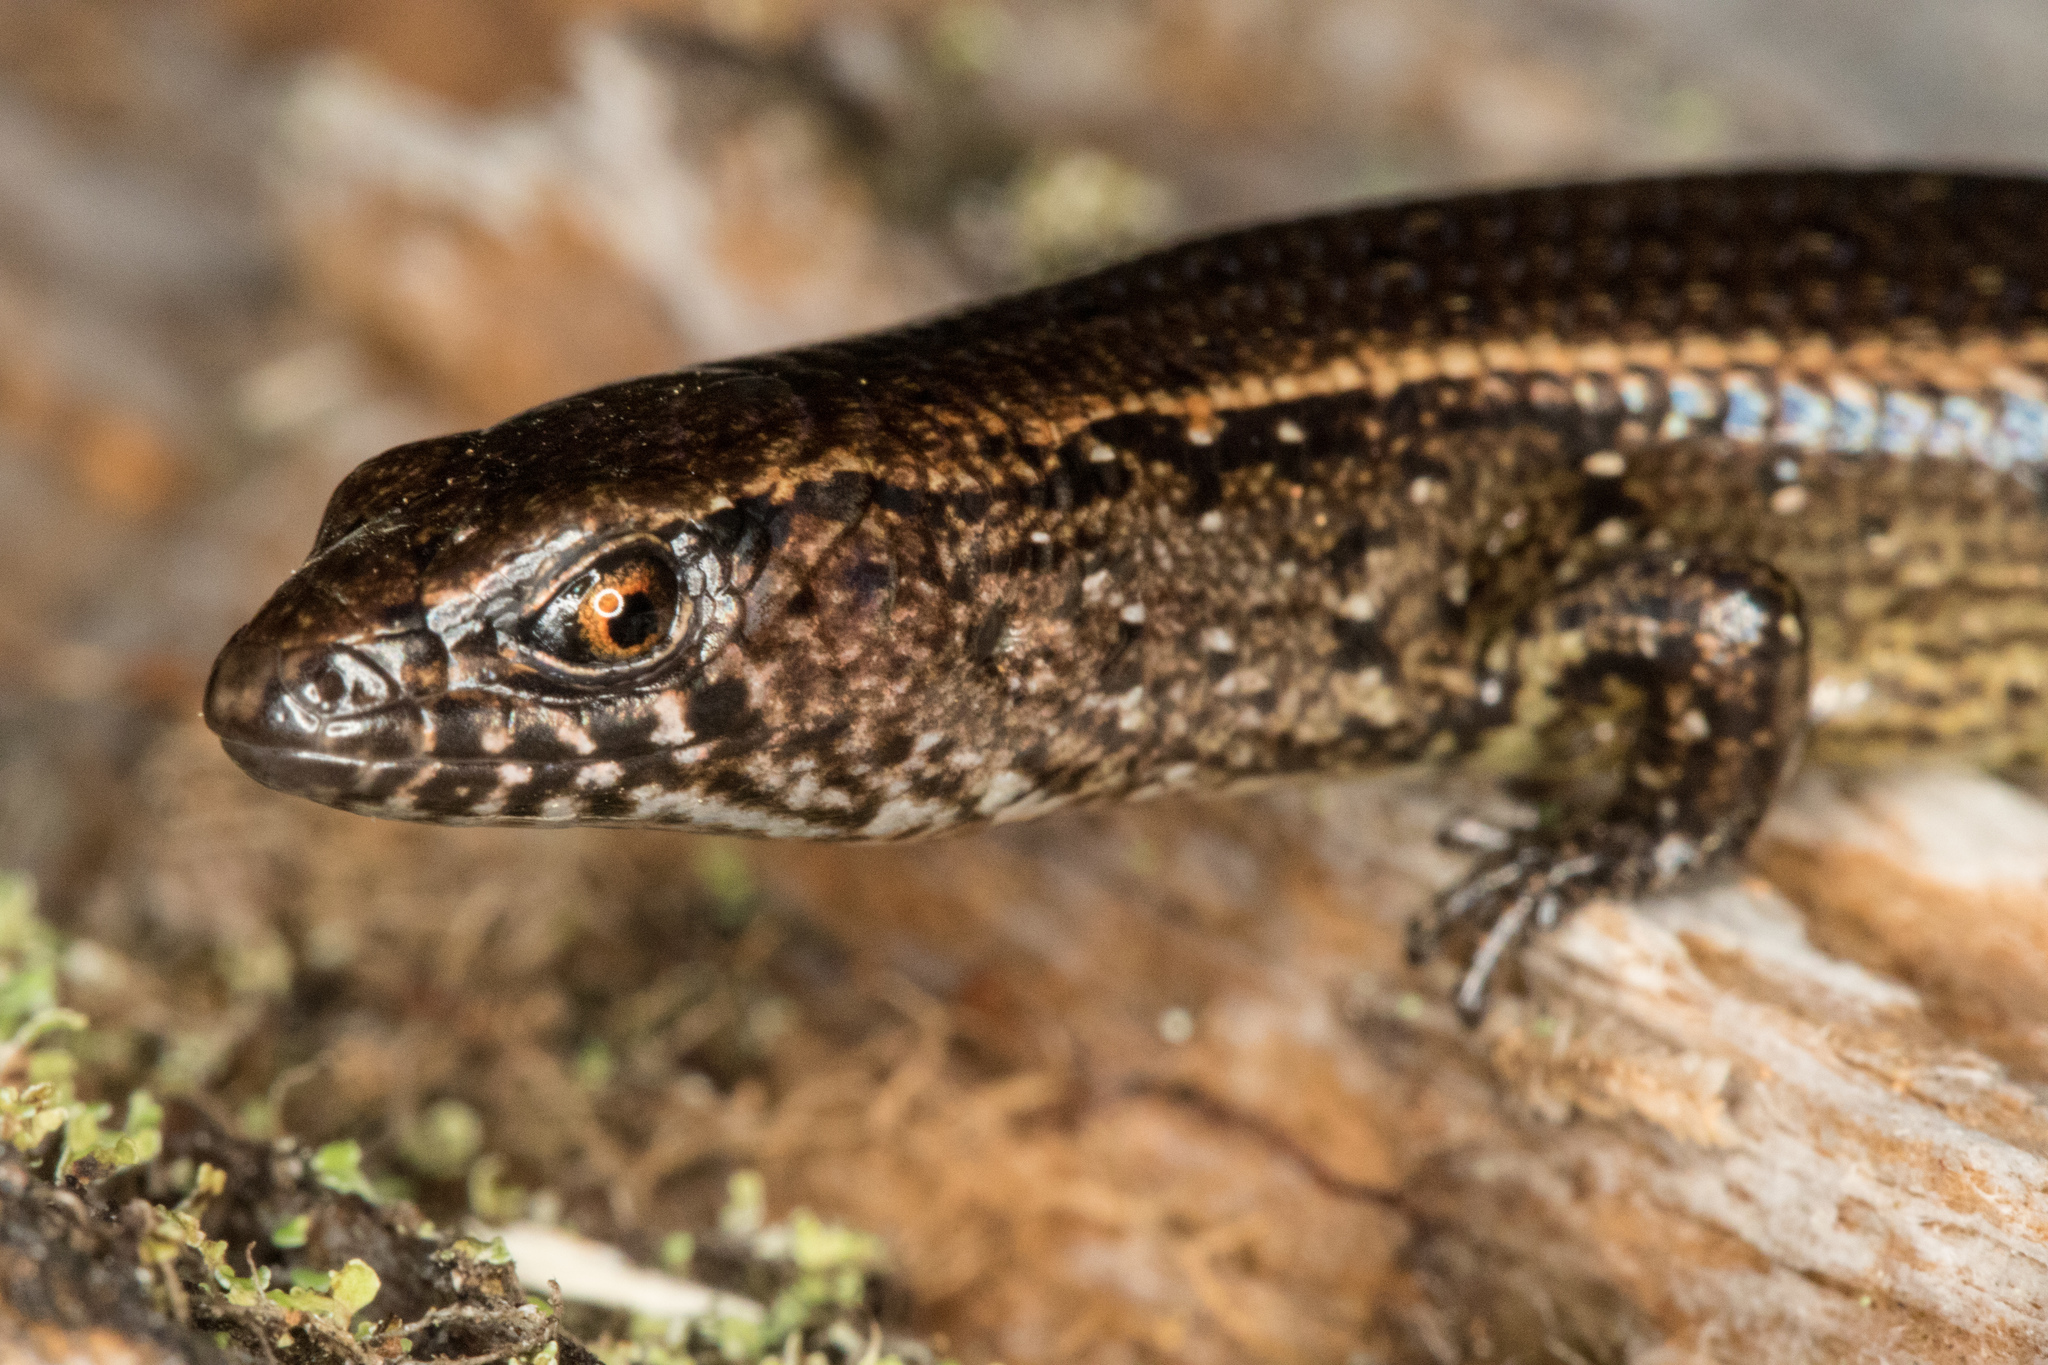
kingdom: Animalia
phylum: Chordata
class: Squamata
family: Scincidae
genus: Oligosoma
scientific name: Oligosoma aeneum
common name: Copper skink
